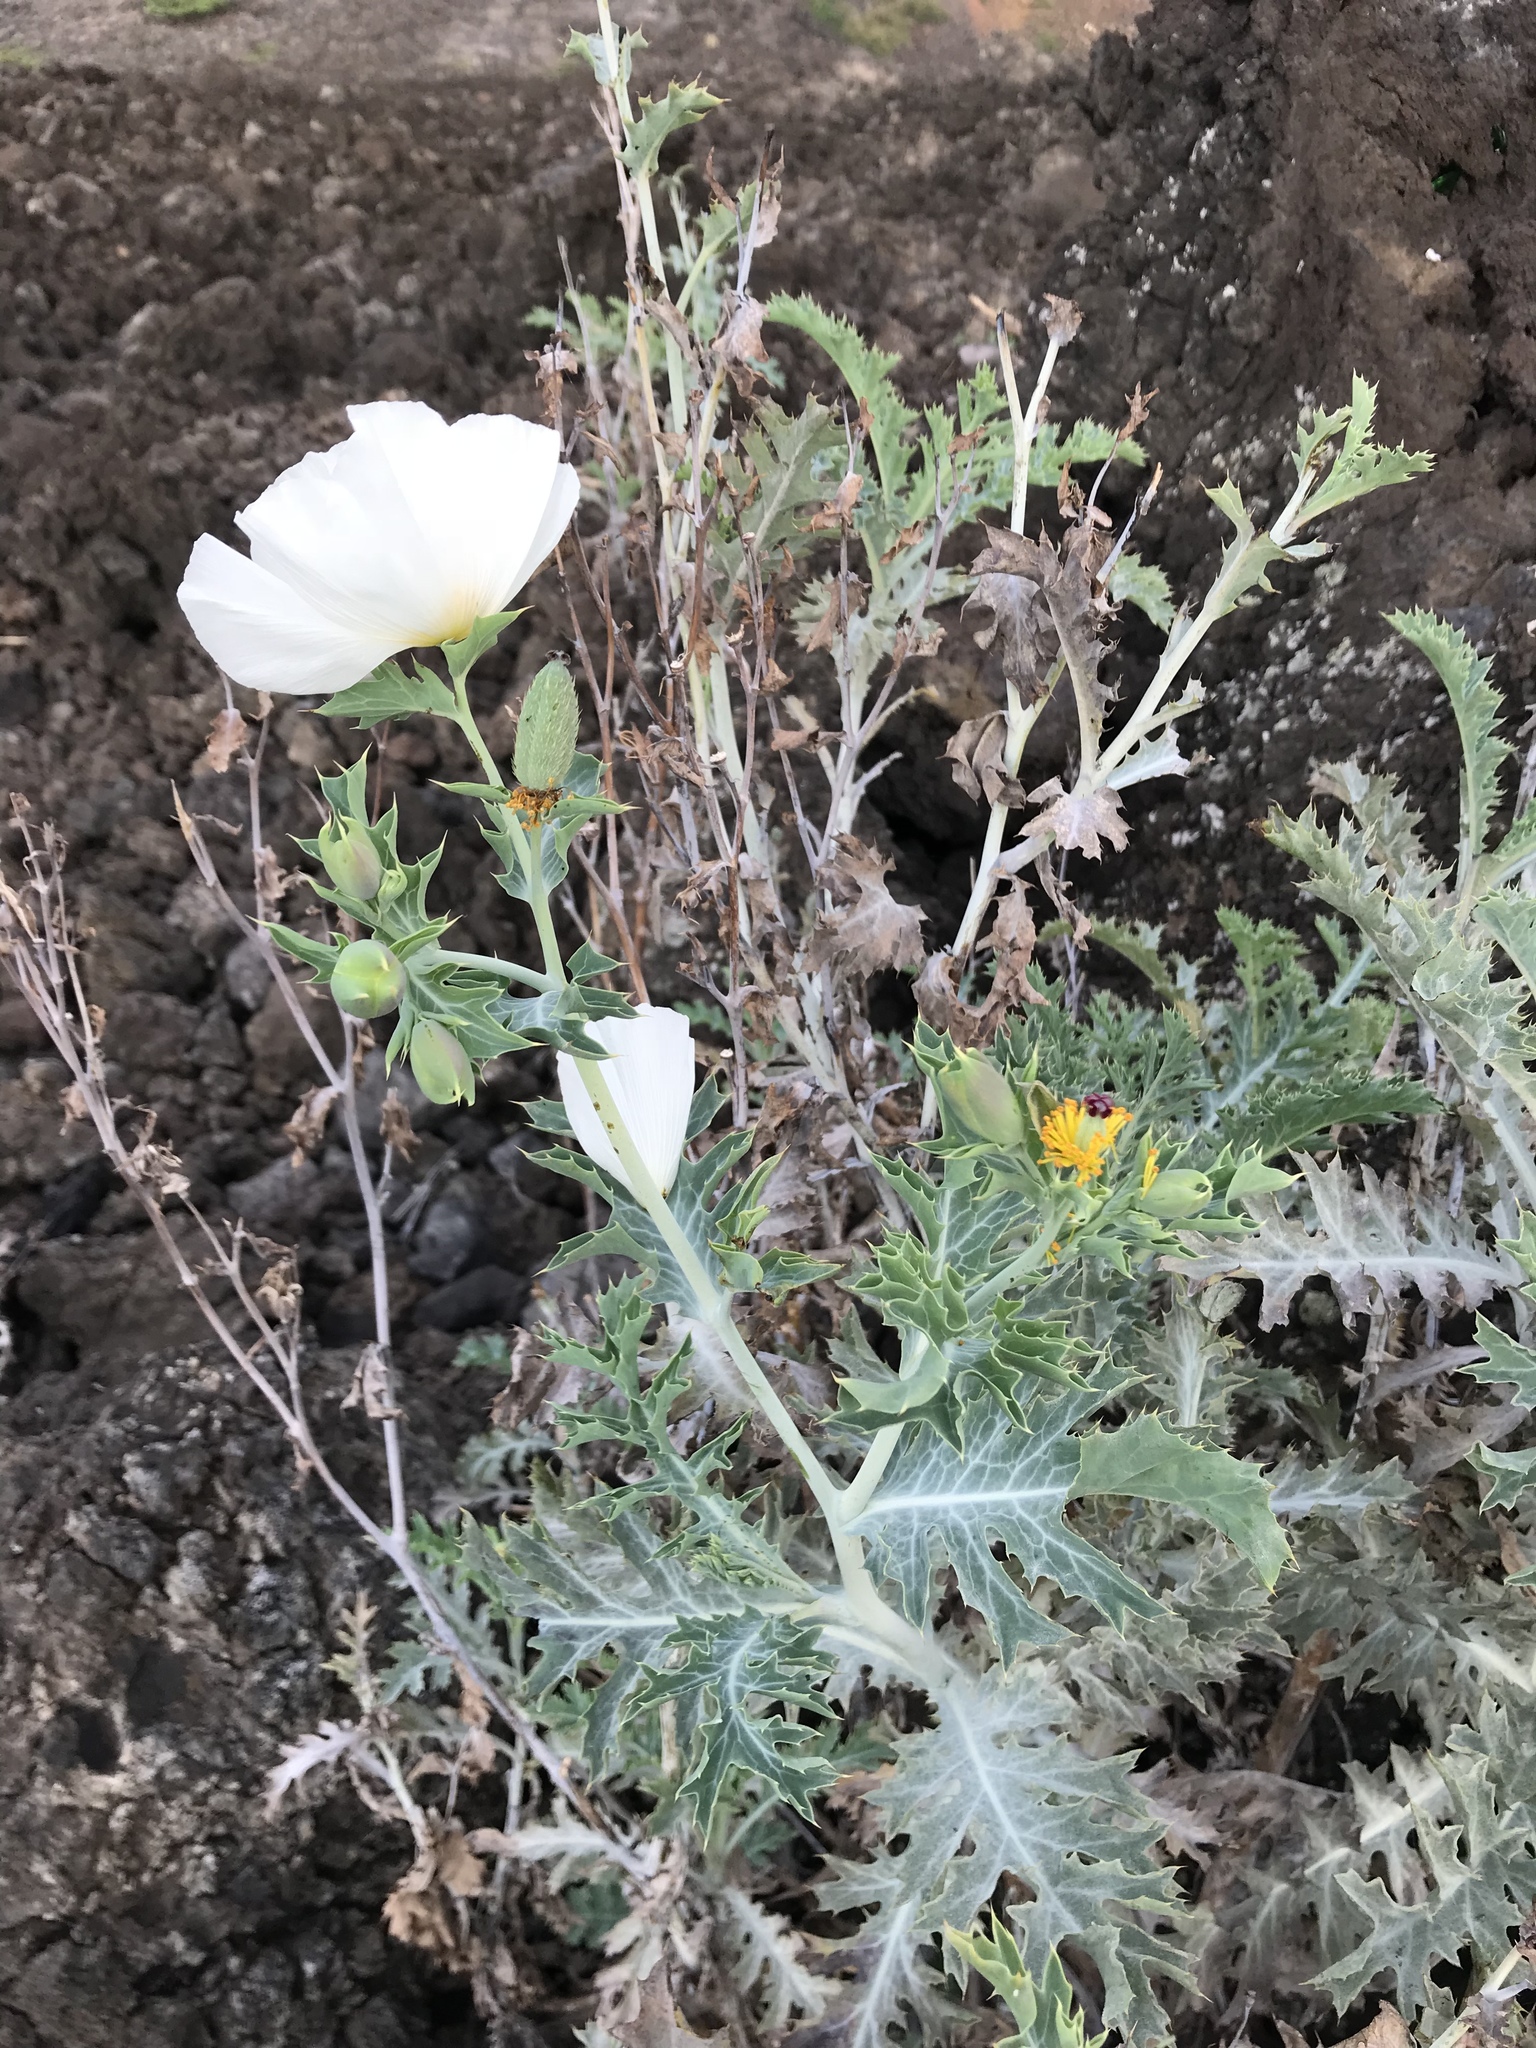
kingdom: Plantae
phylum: Tracheophyta
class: Magnoliopsida
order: Ranunculales
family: Papaveraceae
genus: Argemone
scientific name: Argemone glauca
